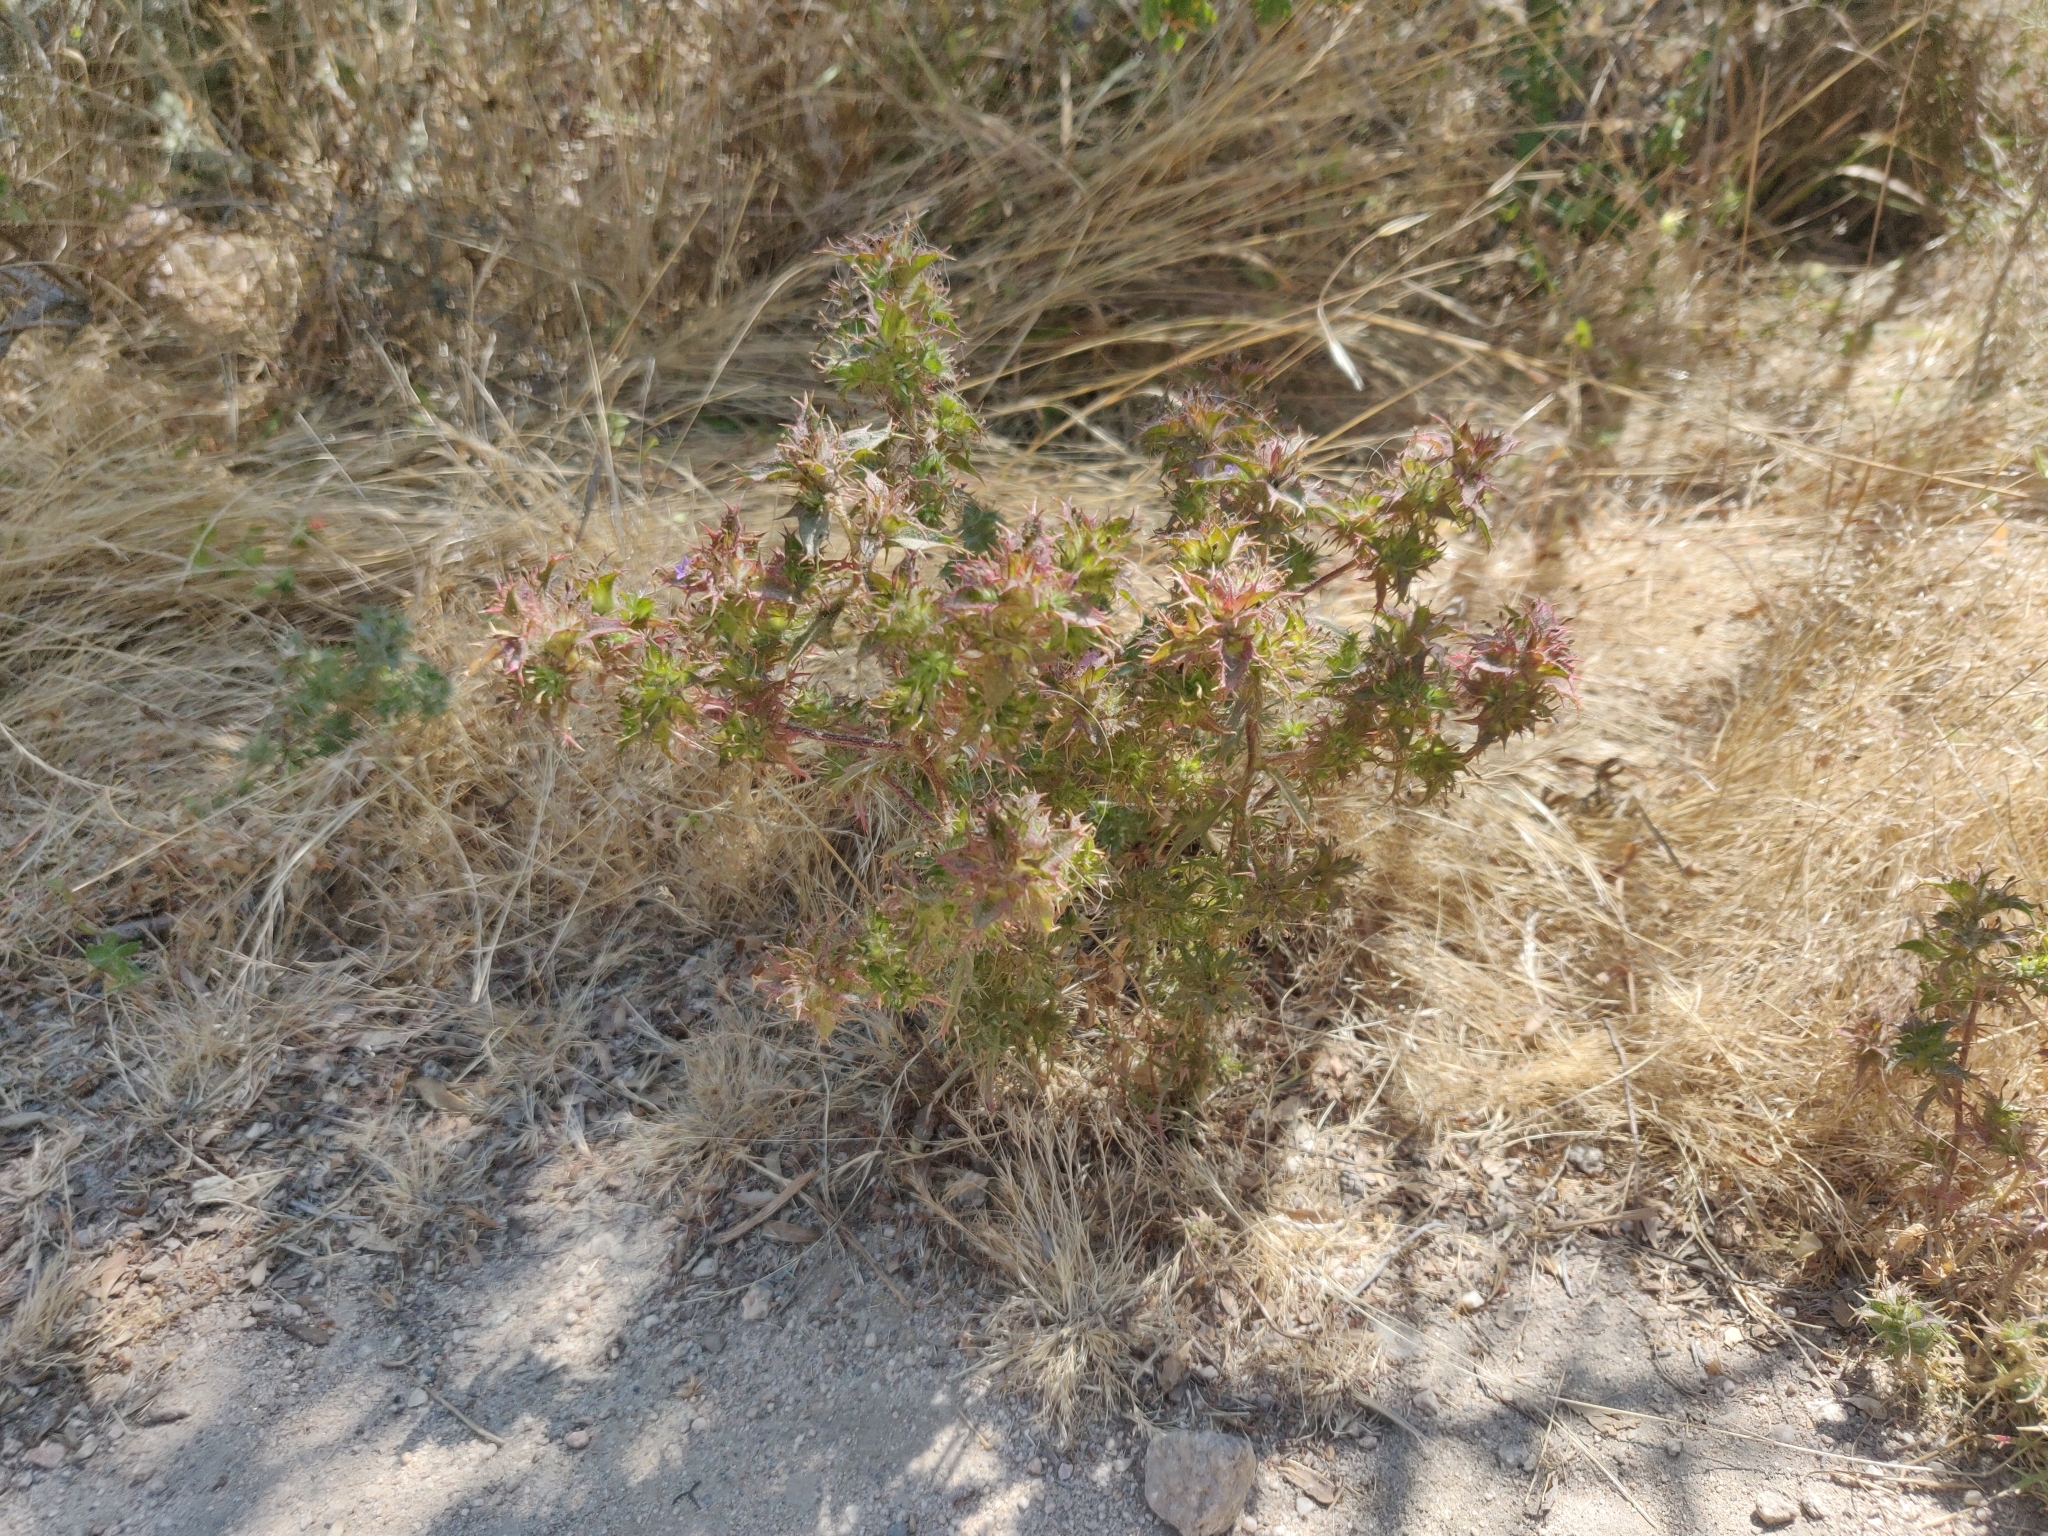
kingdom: Plantae
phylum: Tracheophyta
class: Magnoliopsida
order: Ericales
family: Polemoniaceae
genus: Navarretia
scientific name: Navarretia atractyloides
